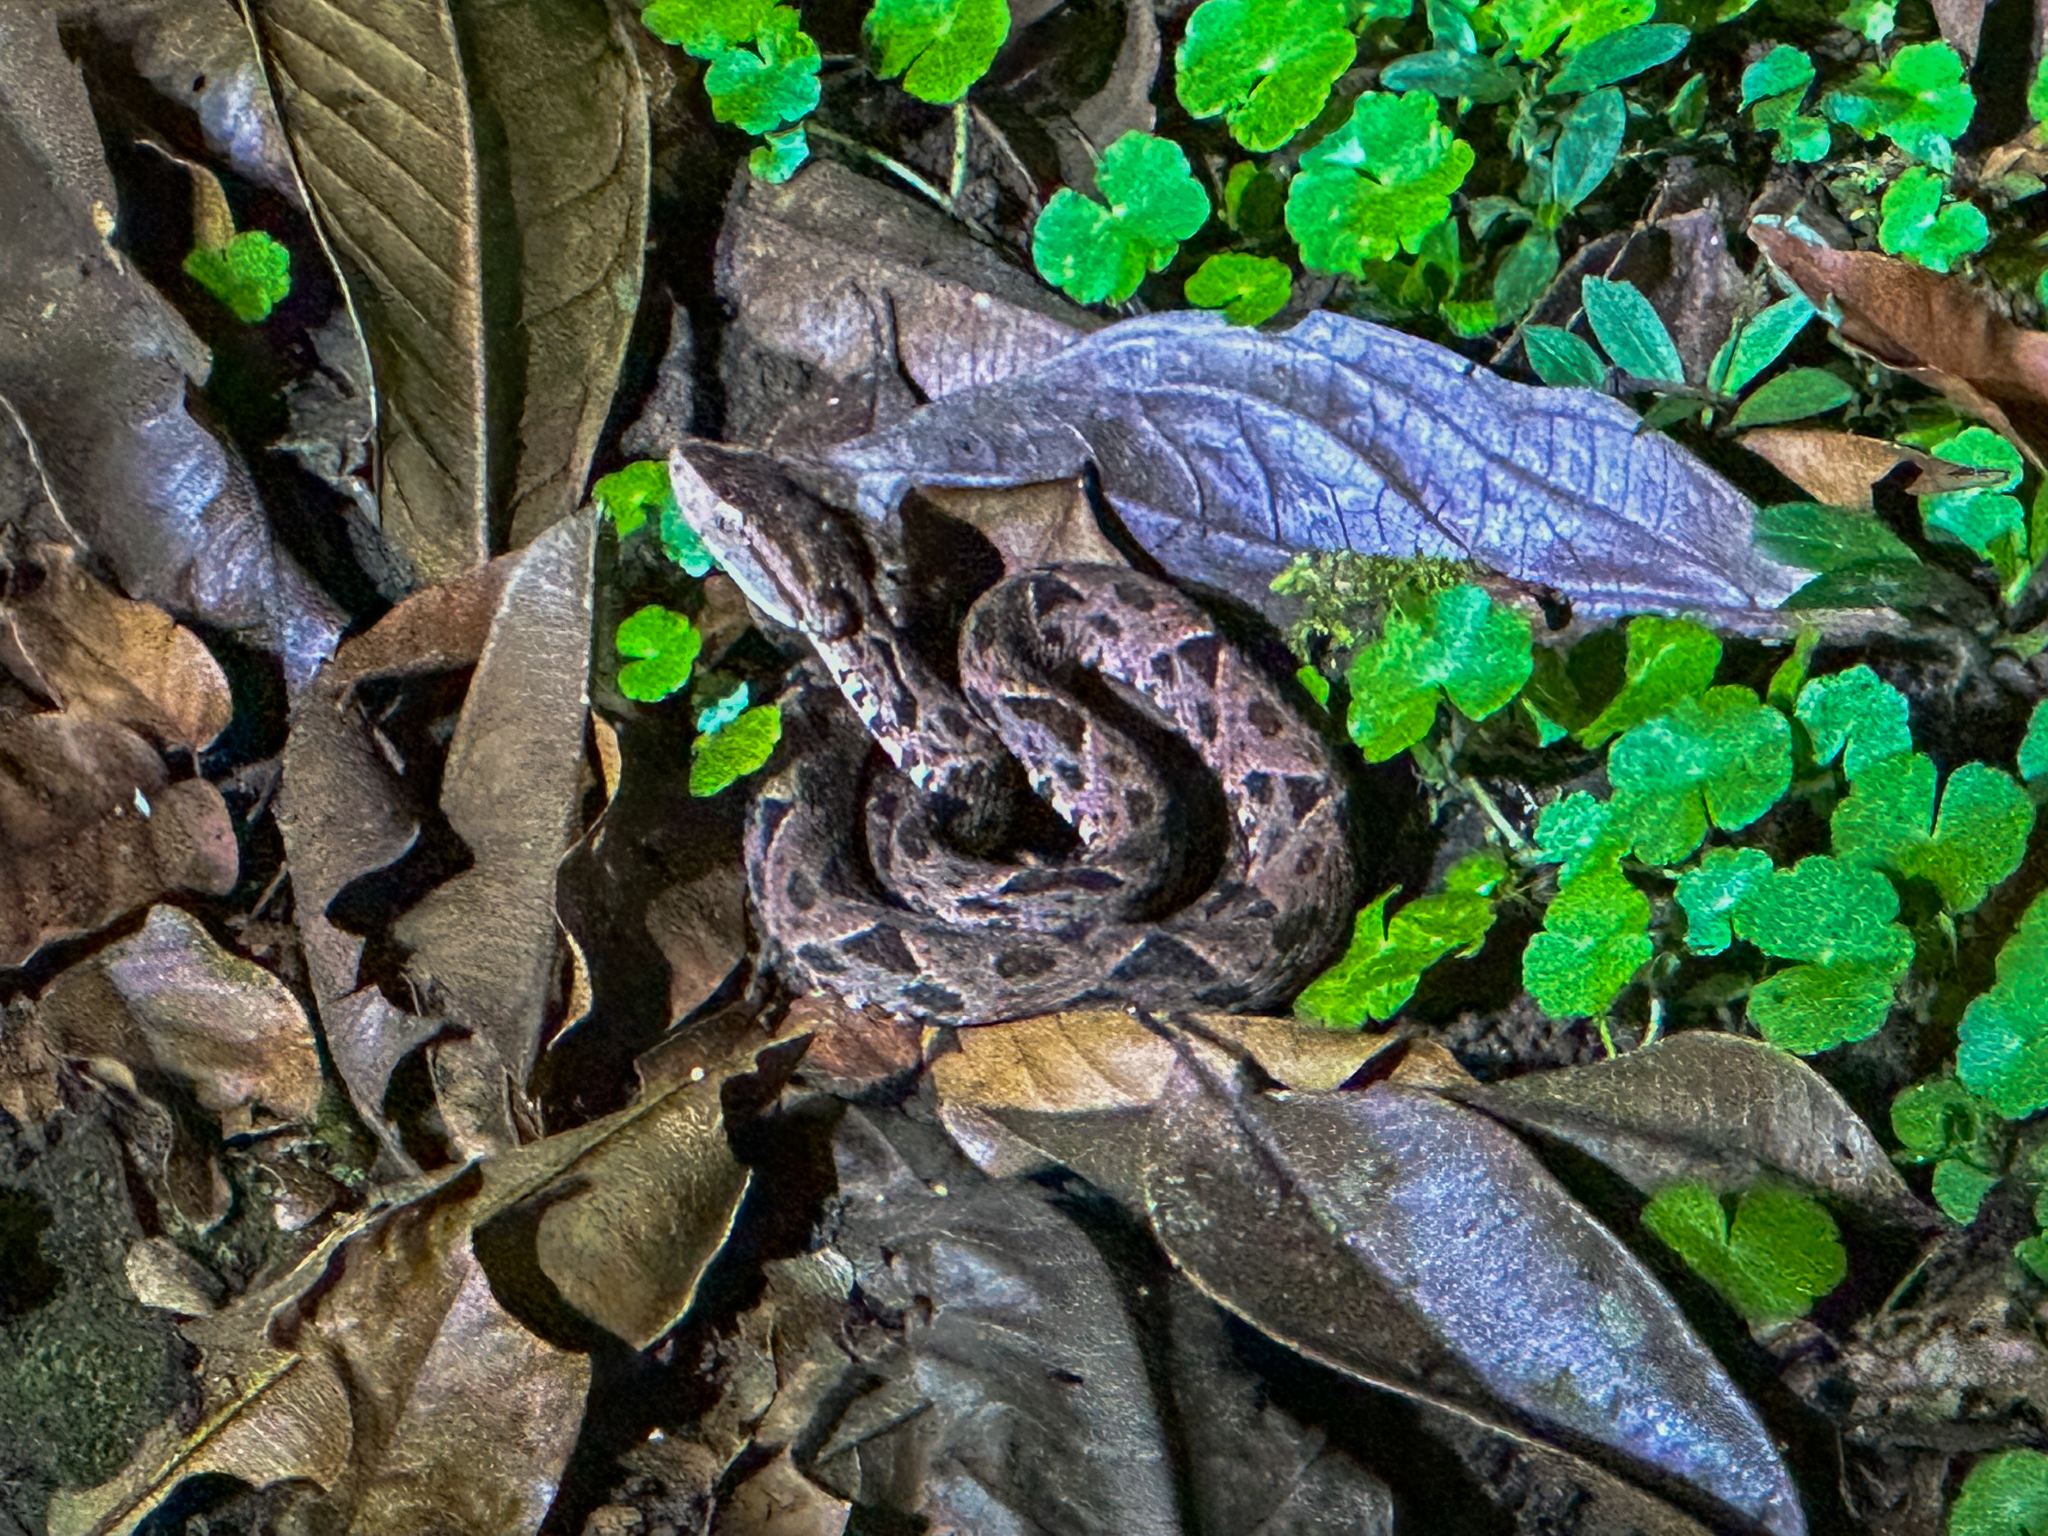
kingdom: Animalia
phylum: Chordata
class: Squamata
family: Viperidae
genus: Bothrops
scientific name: Bothrops asper
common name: Terciopelo
